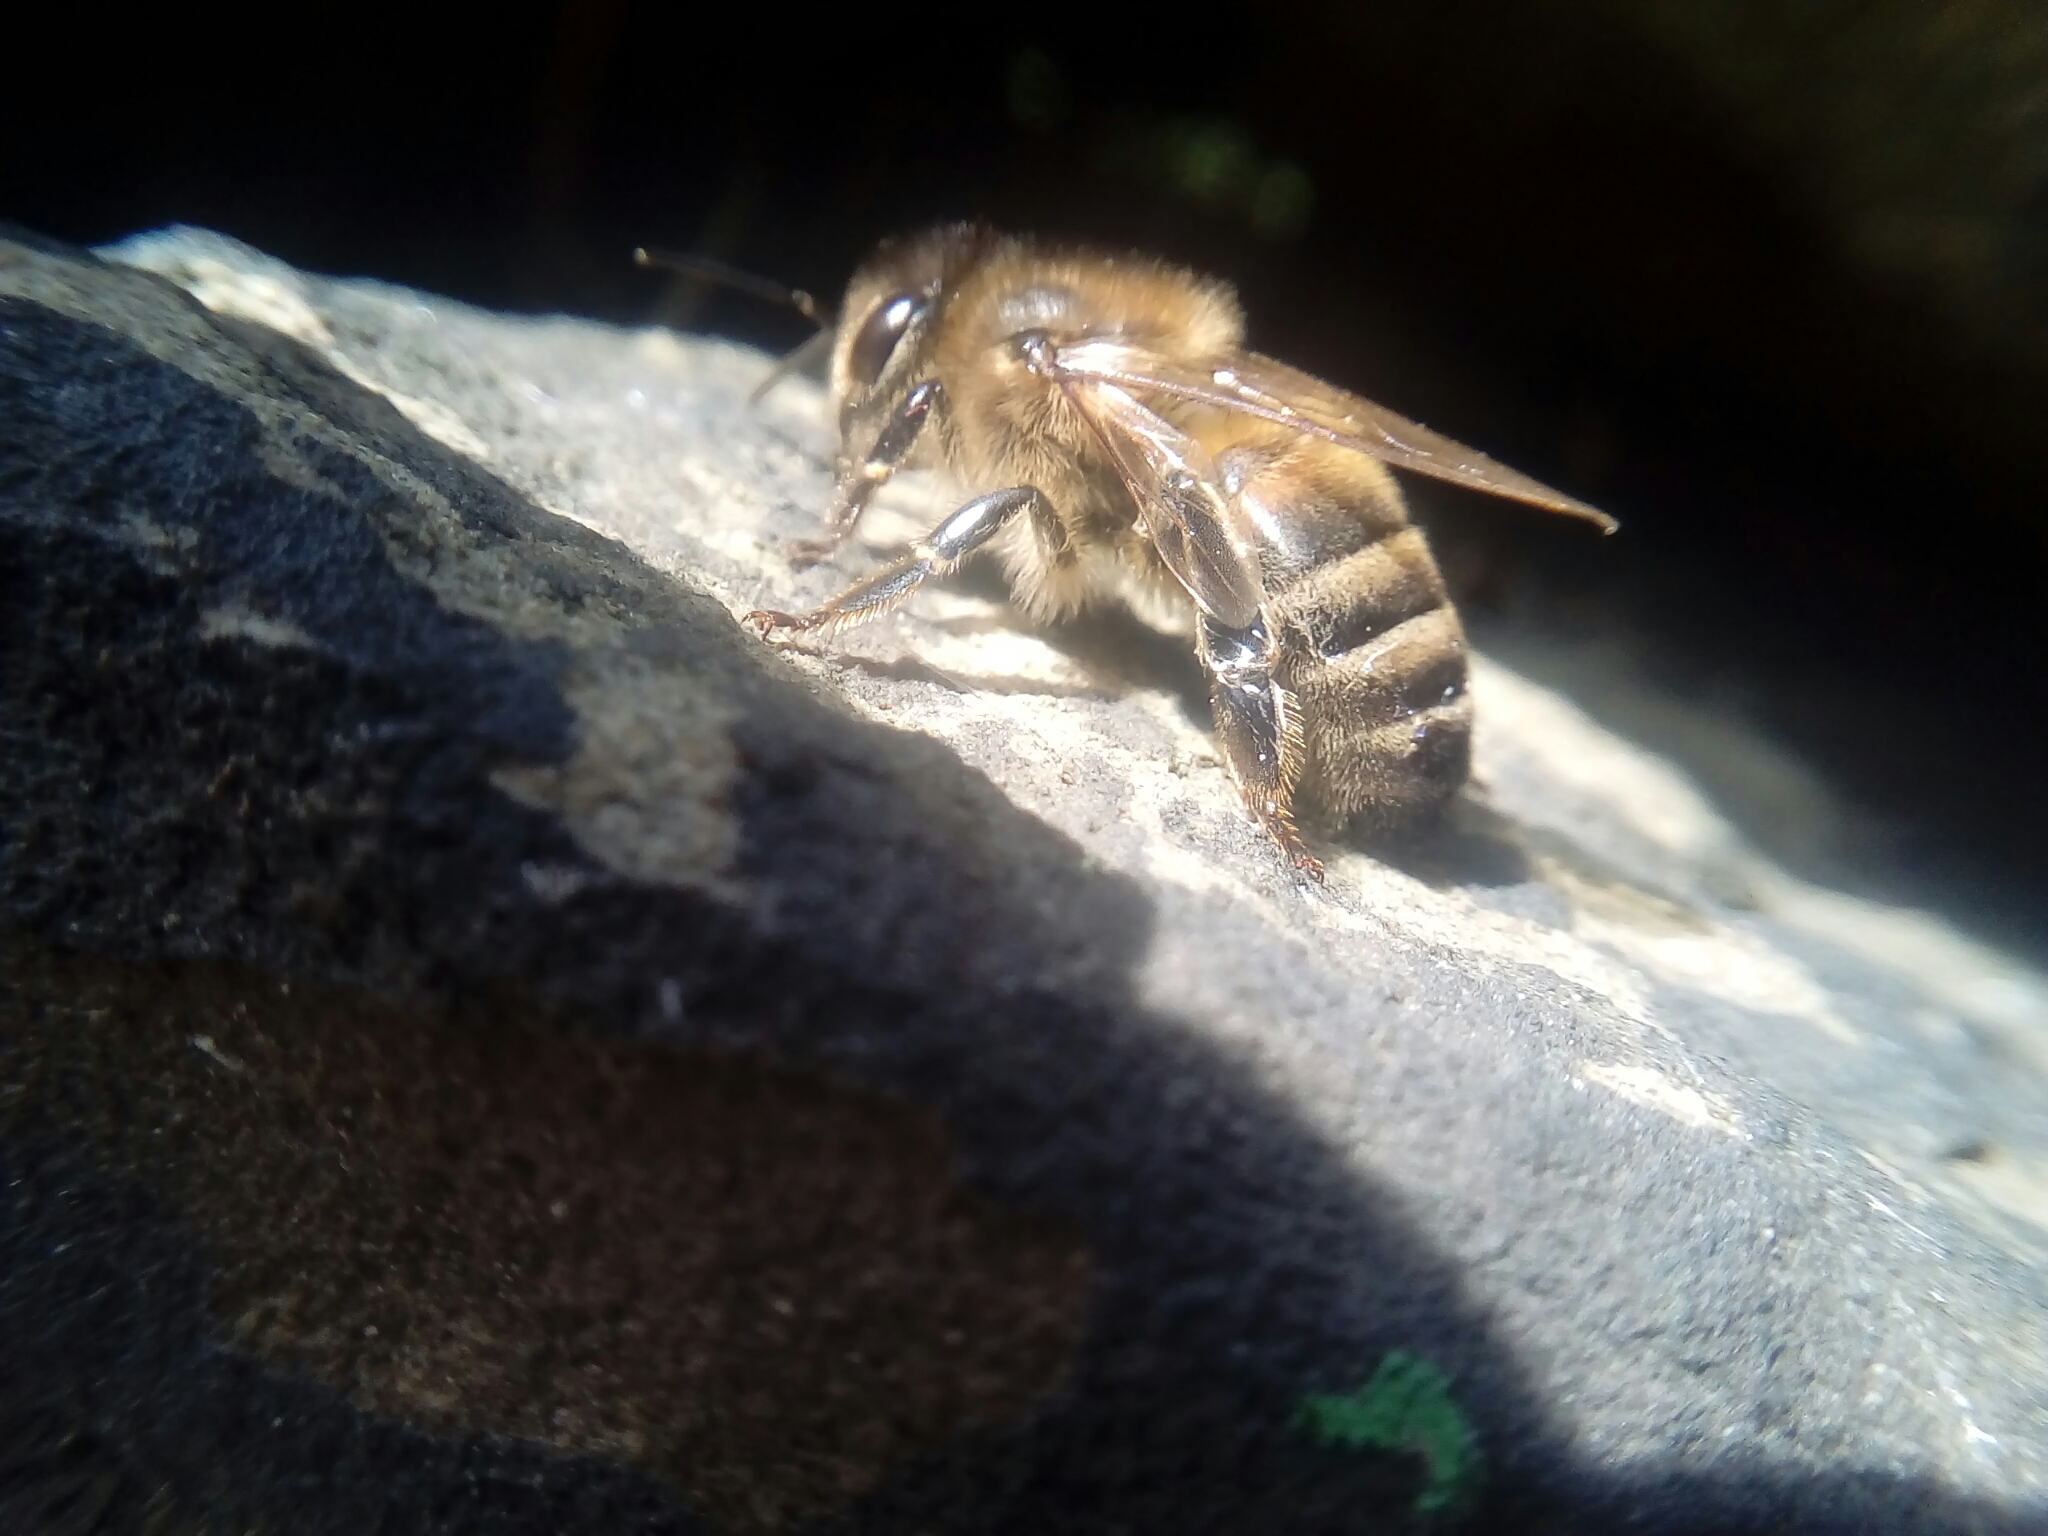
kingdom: Animalia
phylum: Arthropoda
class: Insecta
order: Hymenoptera
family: Apidae
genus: Apis
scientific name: Apis mellifera
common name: Honey bee
